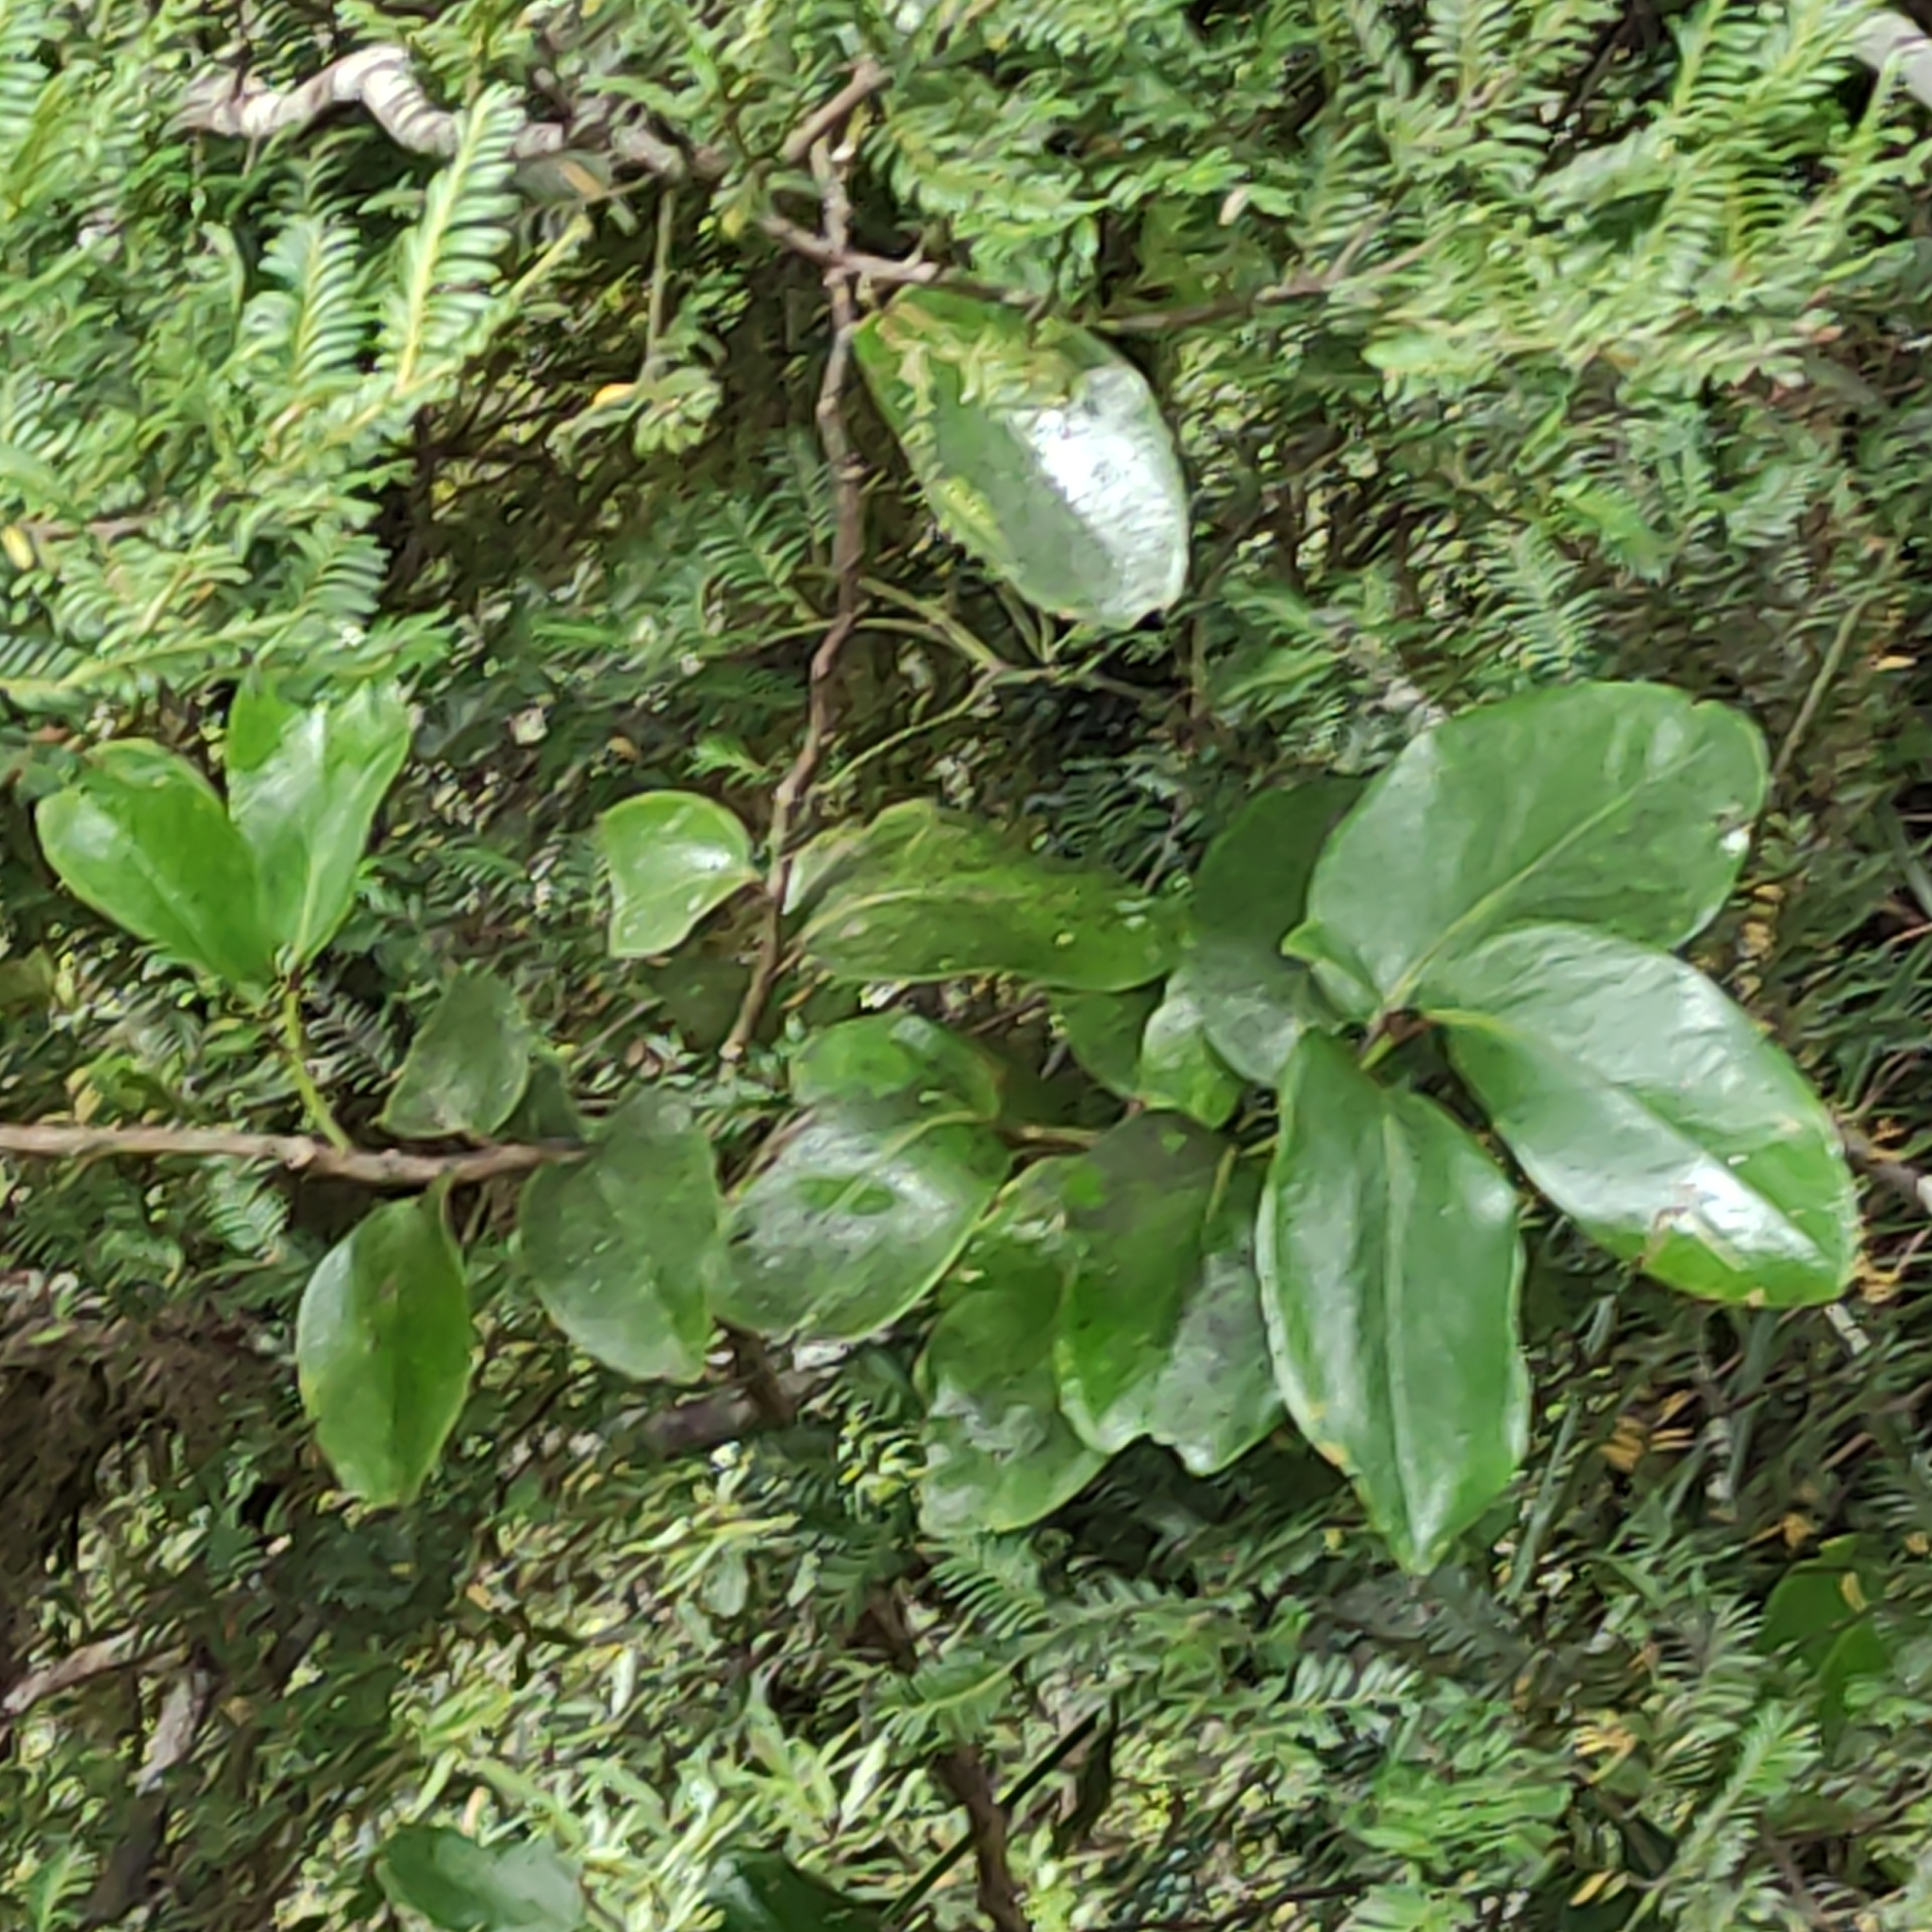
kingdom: Plantae
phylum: Tracheophyta
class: Magnoliopsida
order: Apiales
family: Griseliniaceae
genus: Griselinia
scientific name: Griselinia lucida
